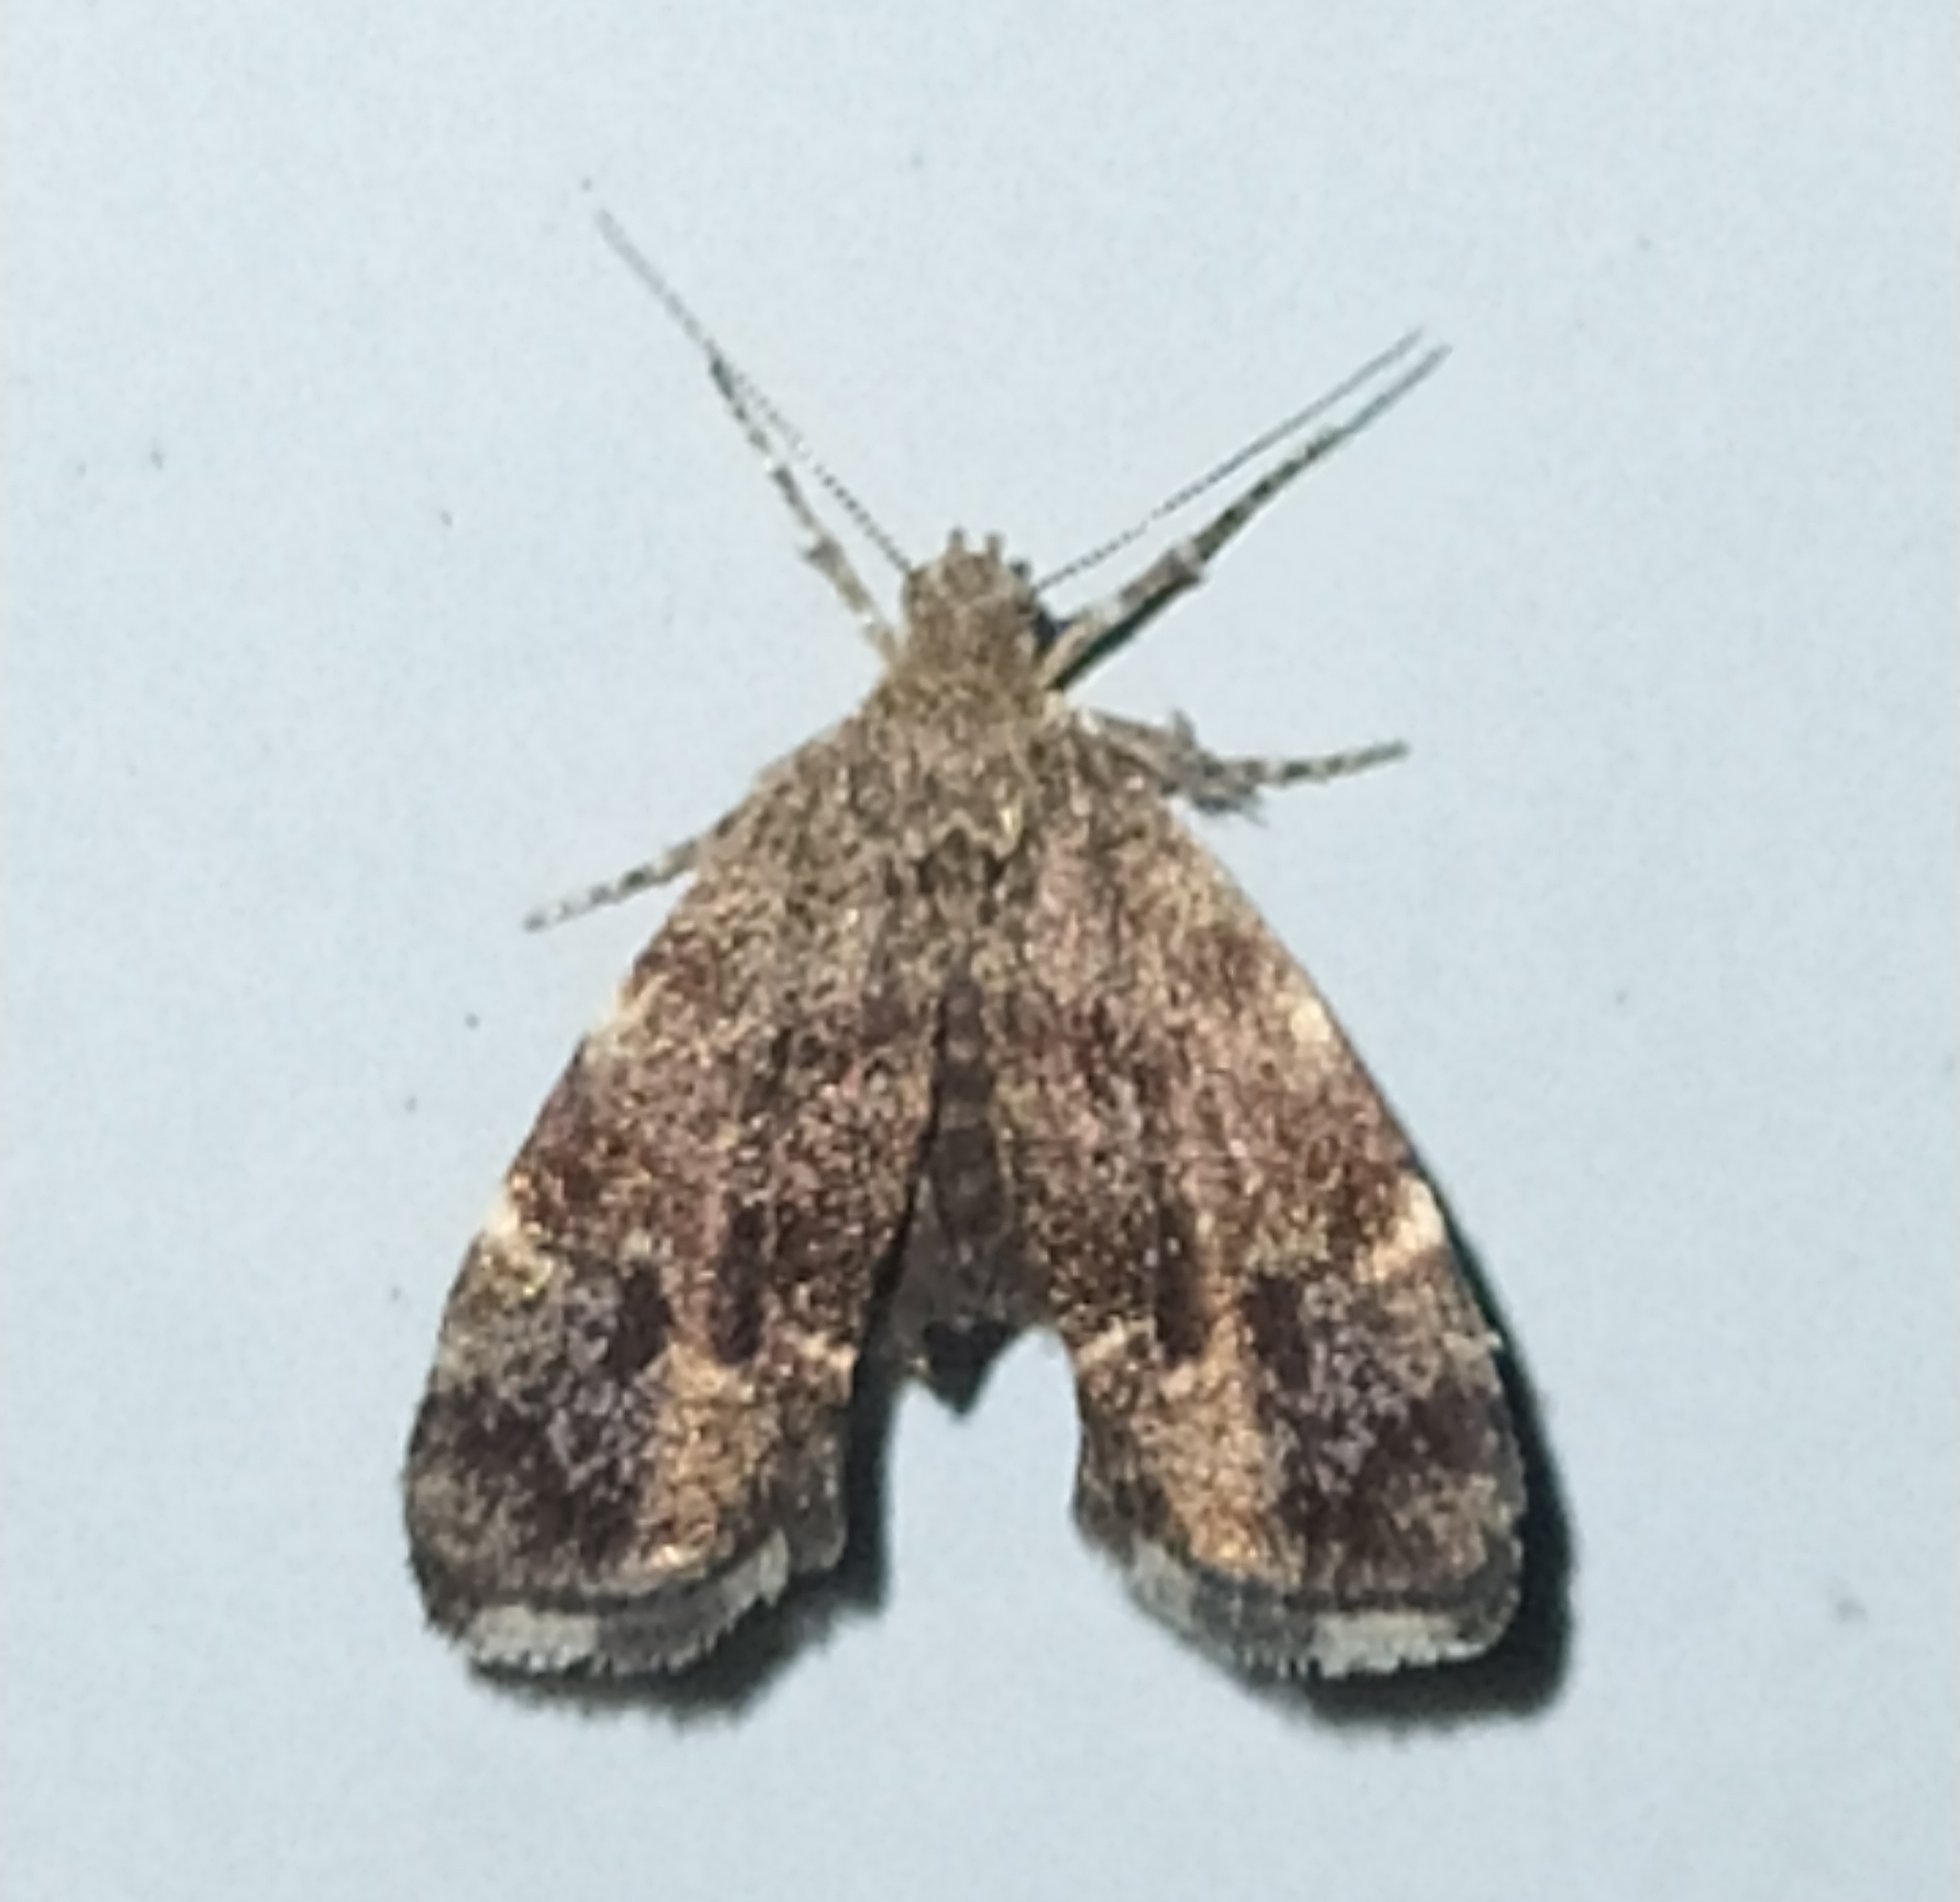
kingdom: Animalia
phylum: Arthropoda
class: Insecta
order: Lepidoptera
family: Choreutidae
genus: Anthophila
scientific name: Anthophila fabriciana
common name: Nettle-tap
